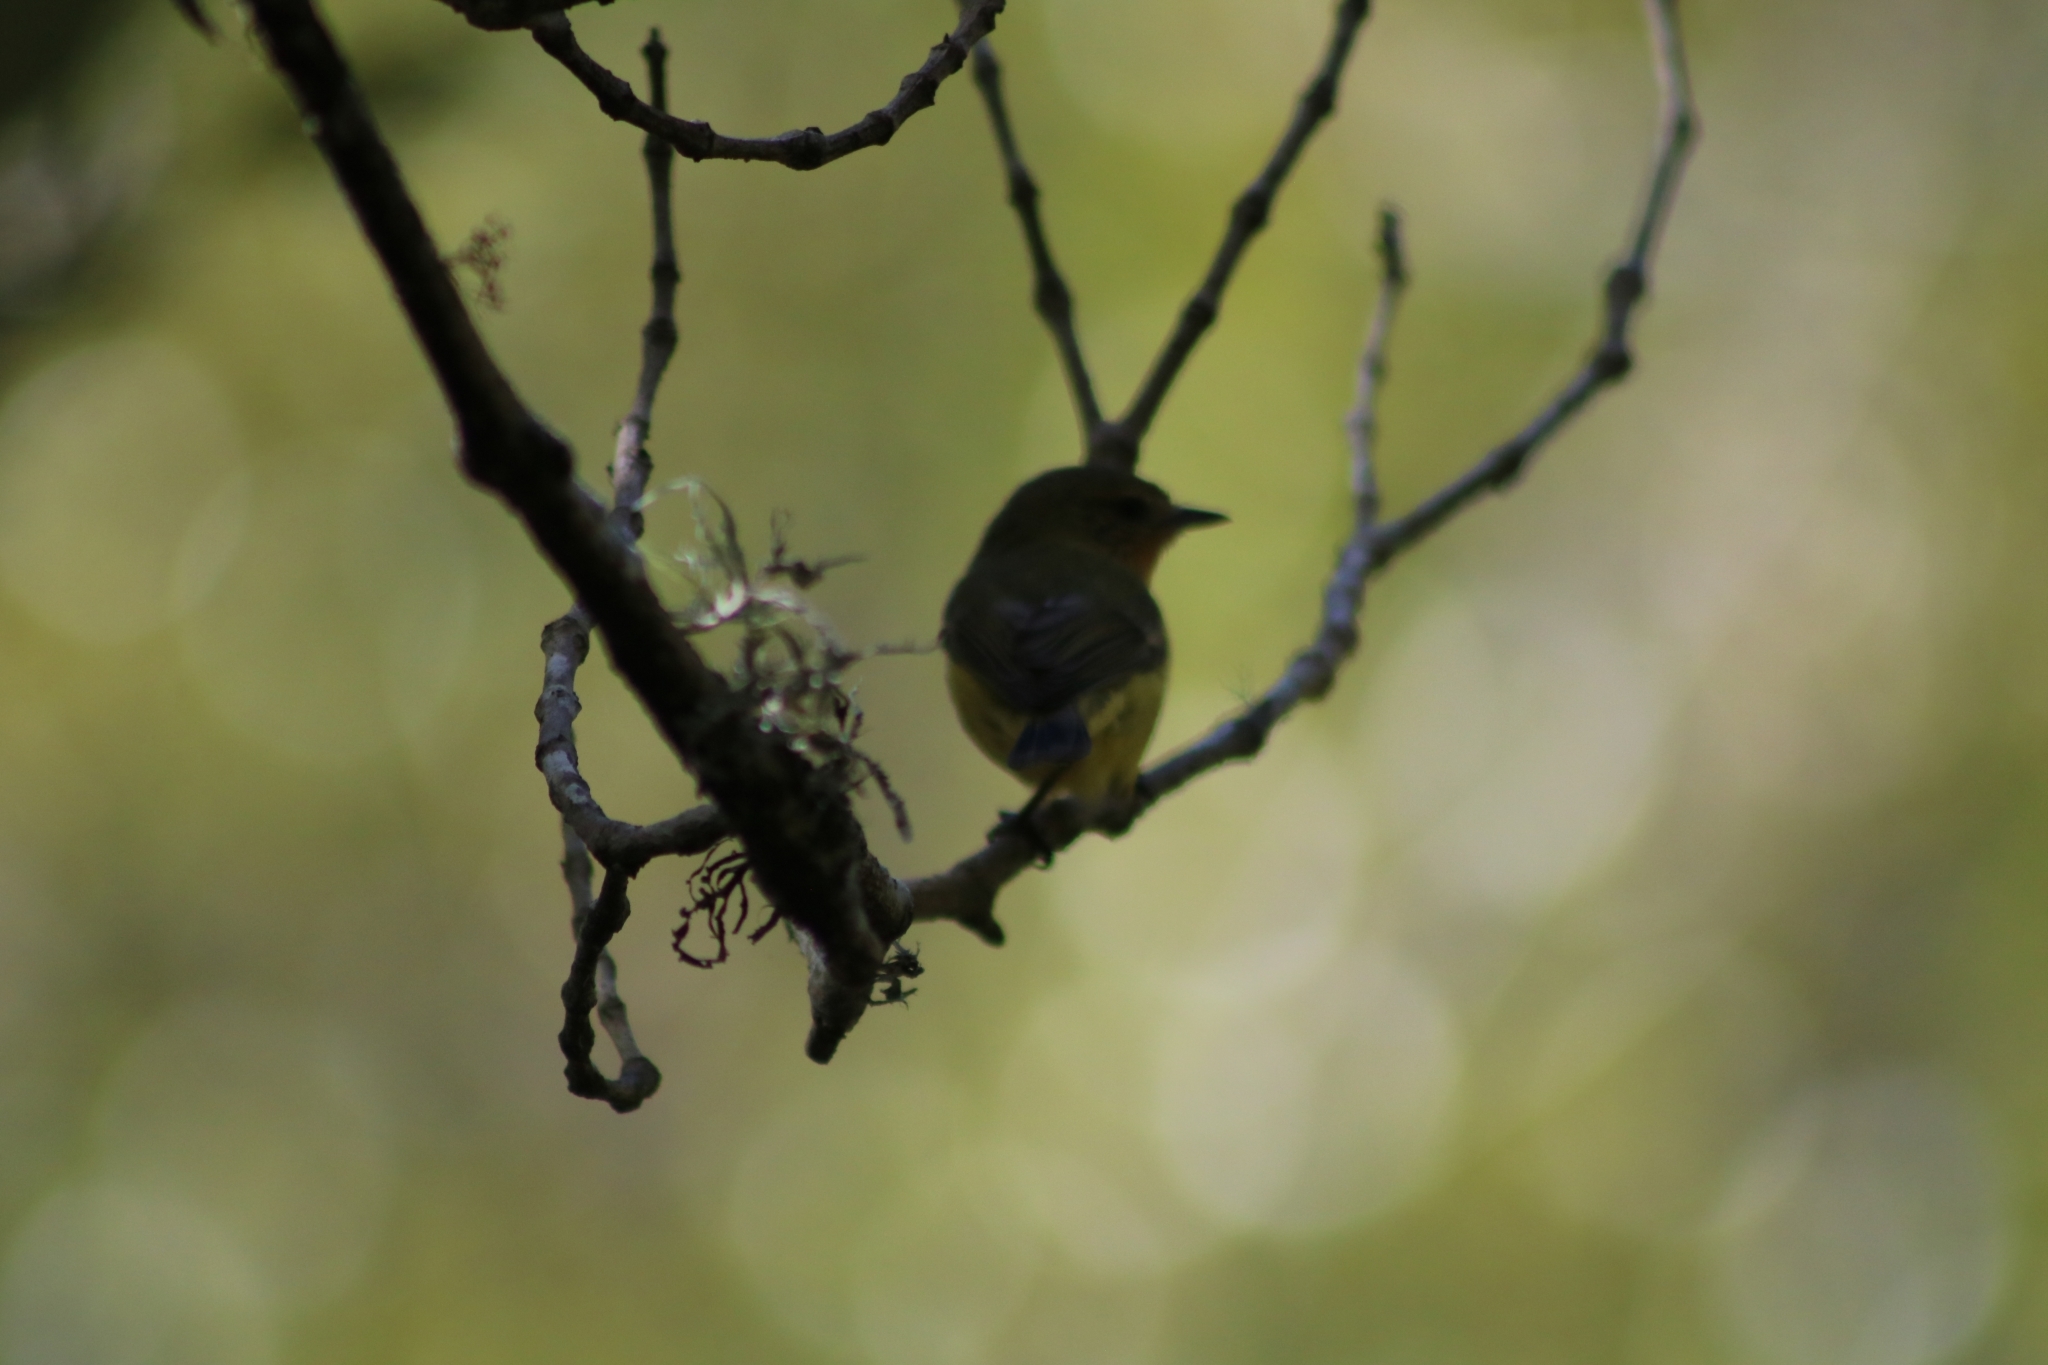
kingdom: Animalia
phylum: Chordata
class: Aves
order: Passeriformes
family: Acanthizidae
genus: Acanthiza
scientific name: Acanthiza nana
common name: Yellow thornbill
